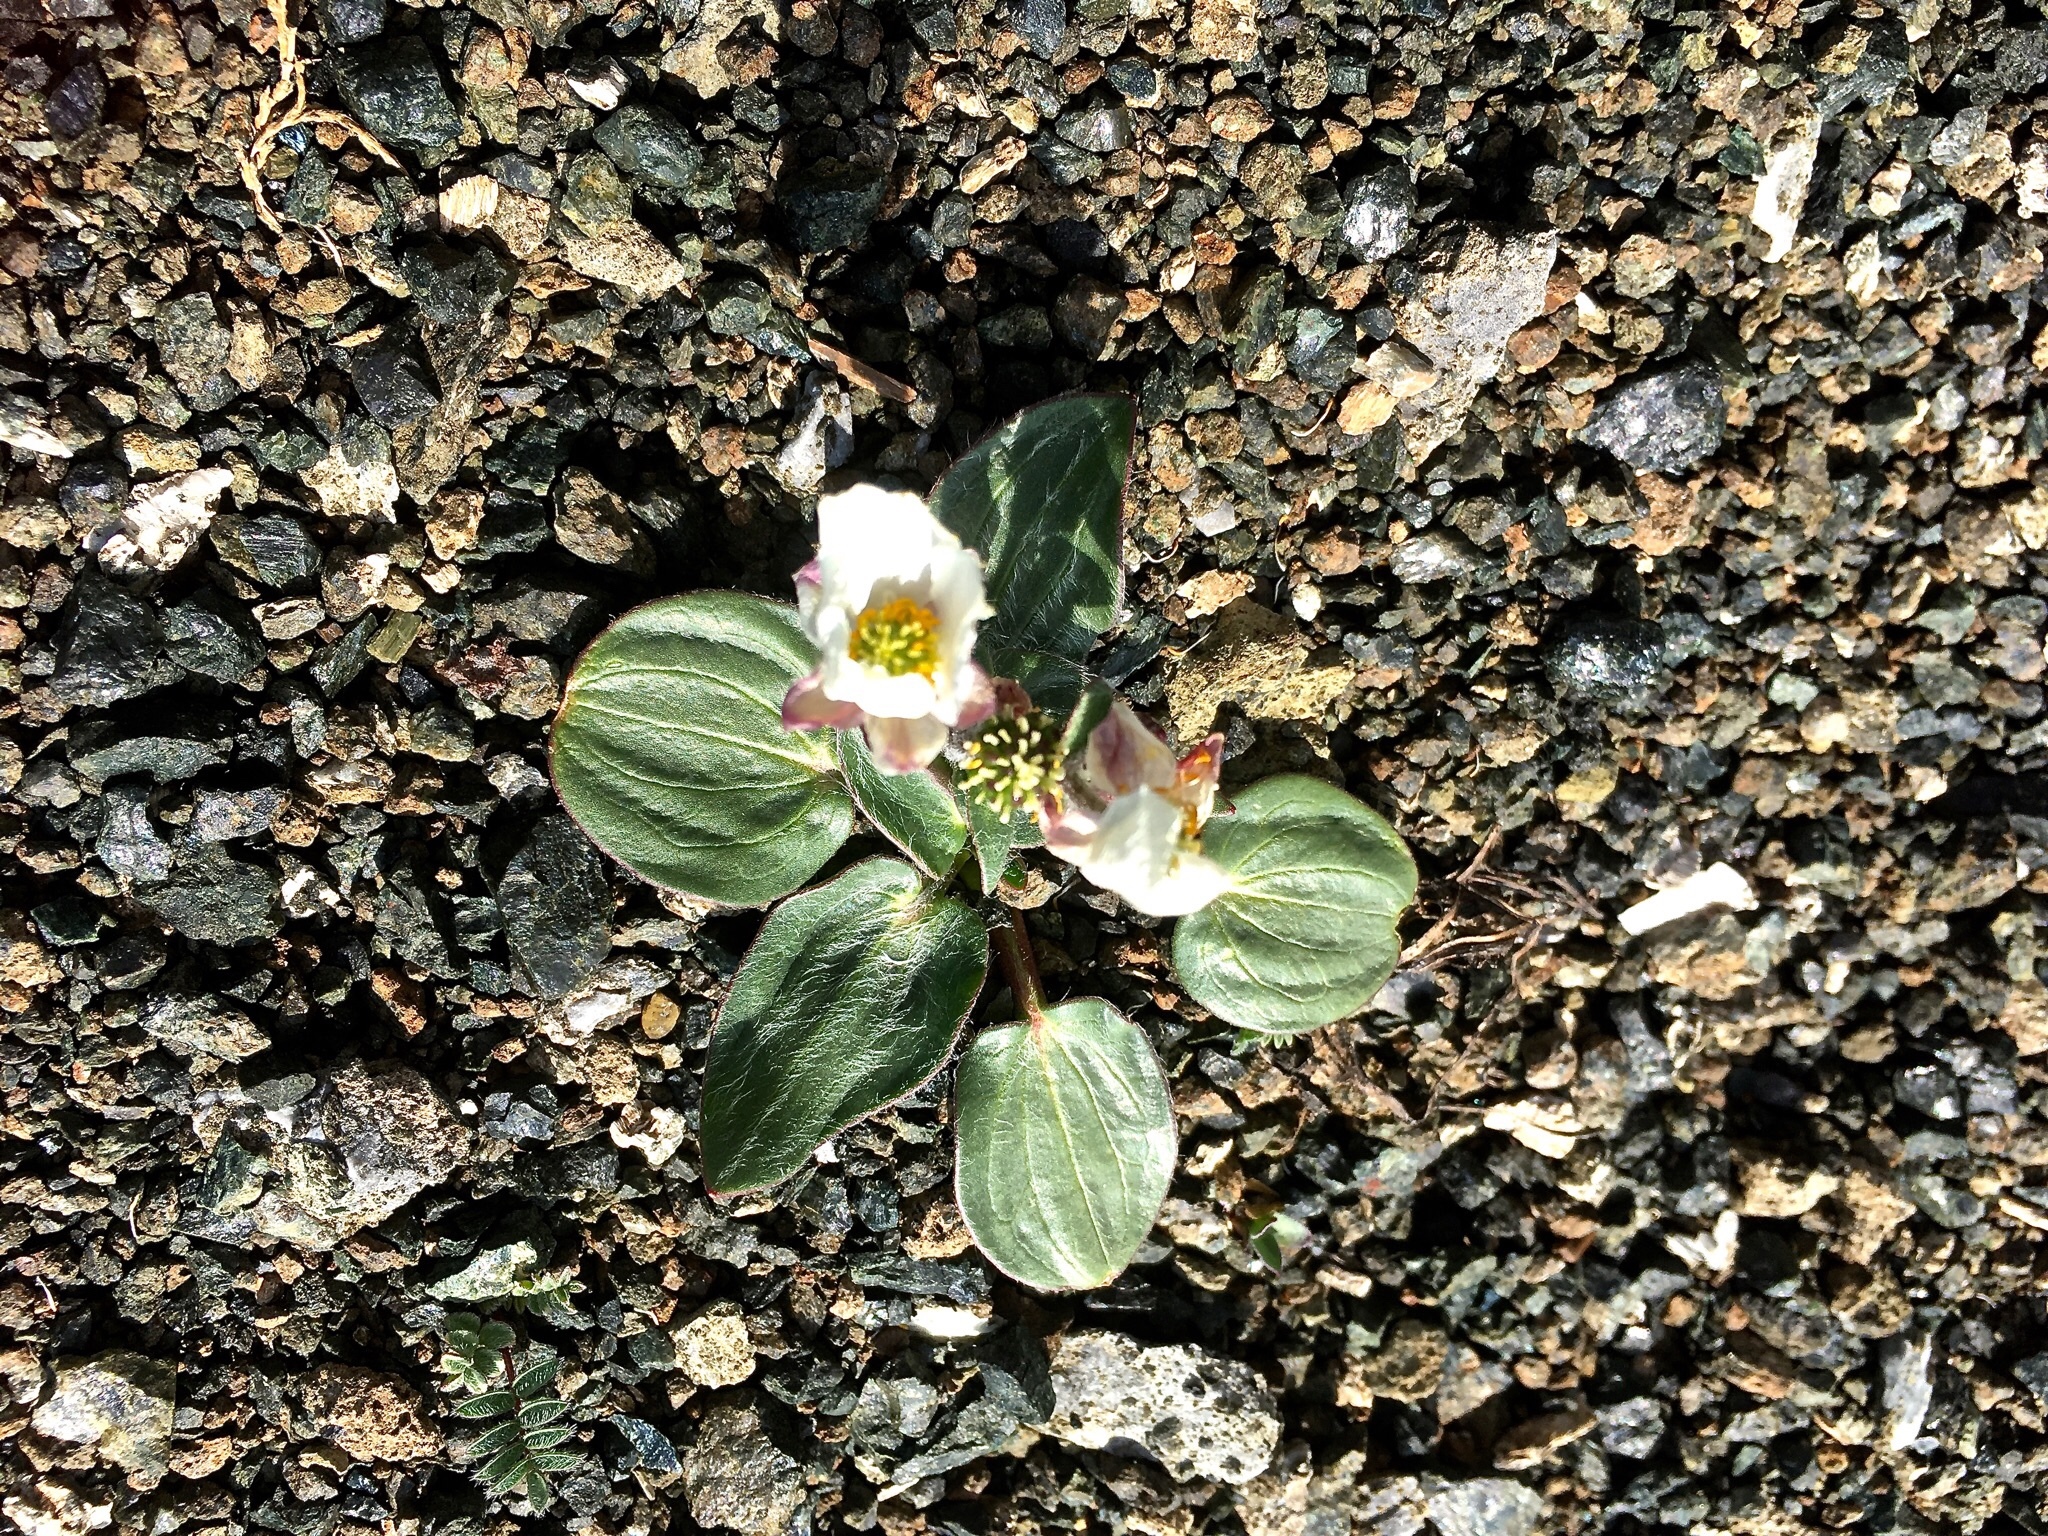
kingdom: Plantae
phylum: Tracheophyta
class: Magnoliopsida
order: Ranunculales
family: Ranunculaceae
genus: Ranunculus
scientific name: Ranunculus parnassiifolius
